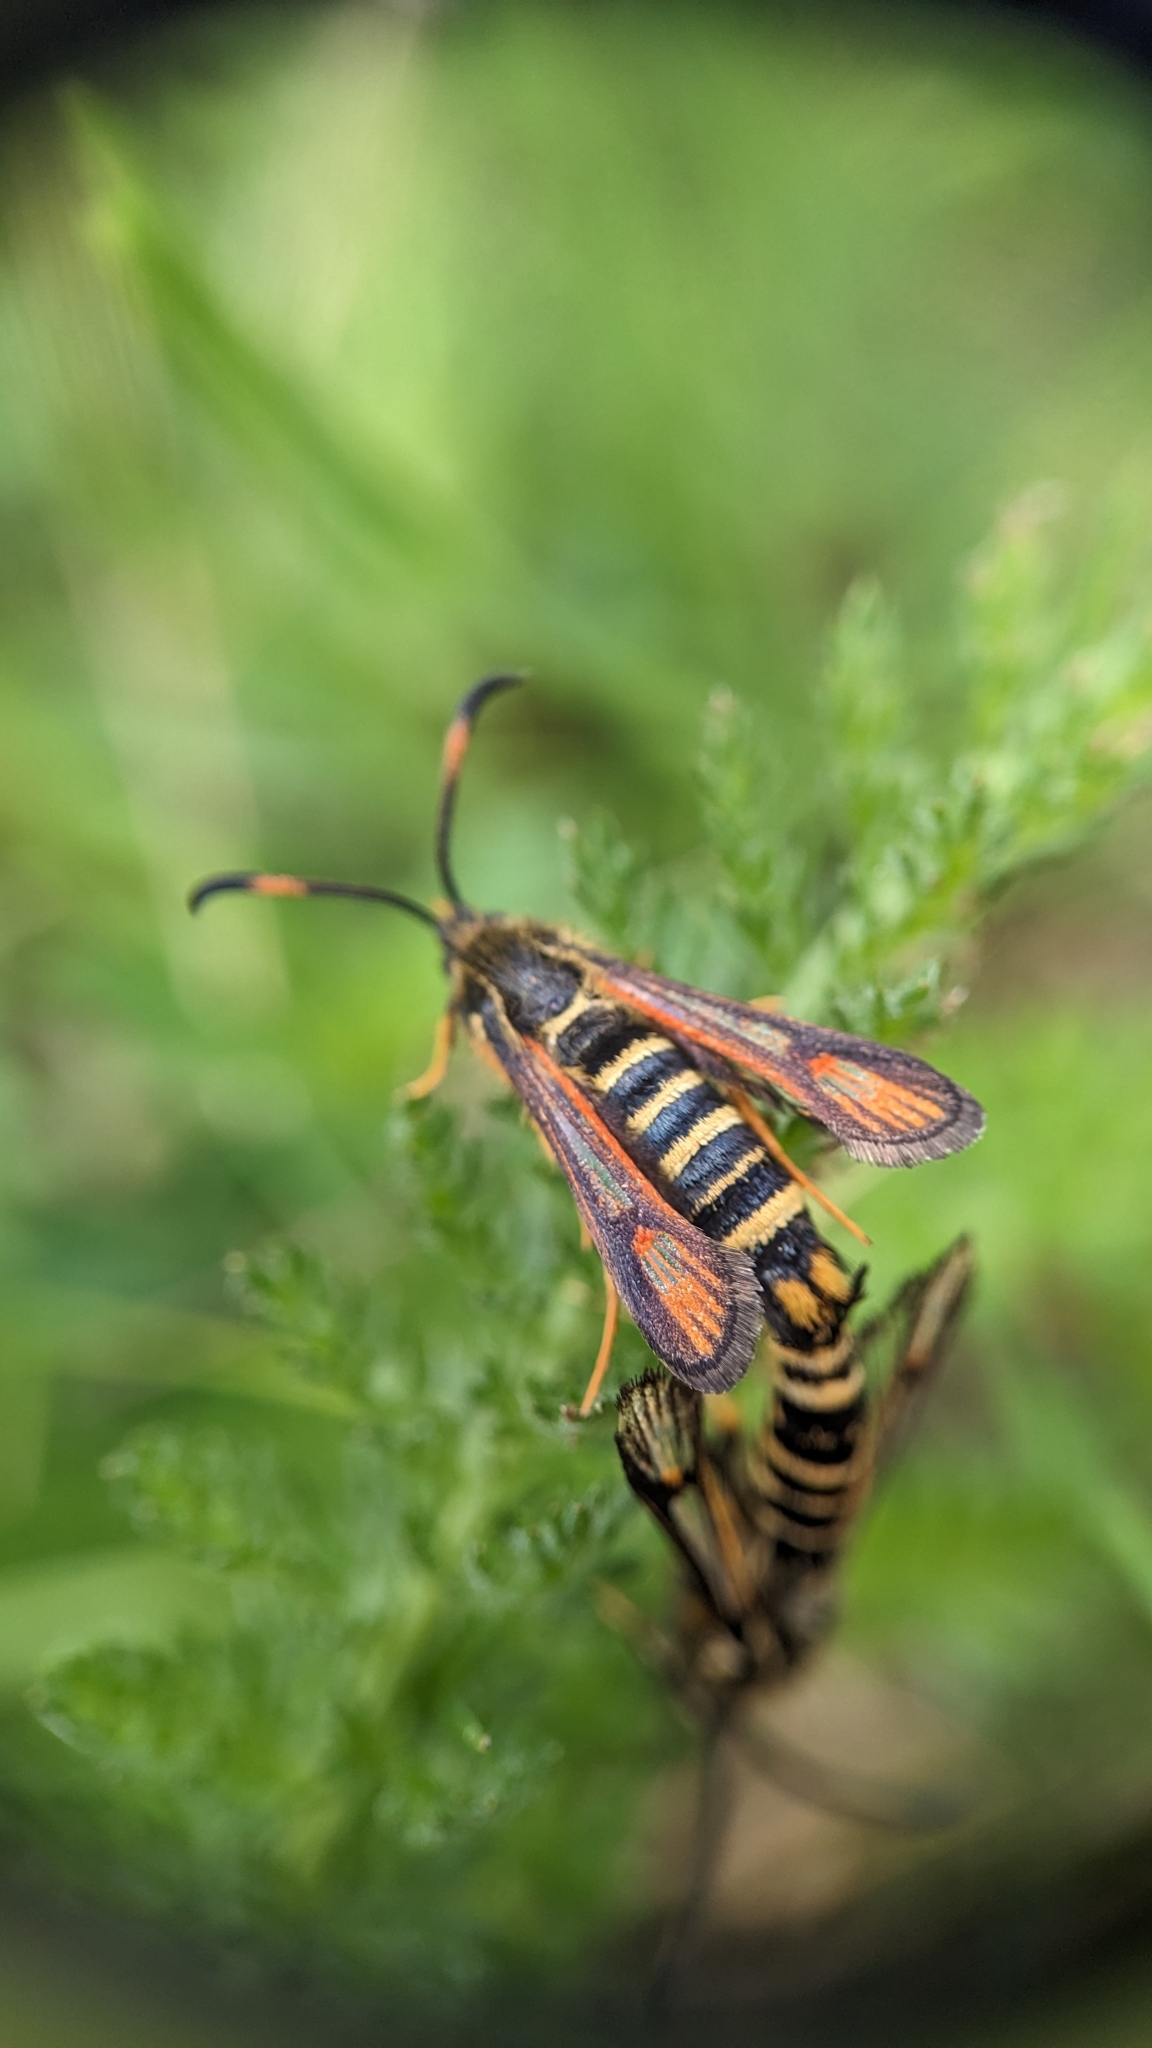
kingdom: Animalia
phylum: Arthropoda
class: Insecta
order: Lepidoptera
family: Sesiidae
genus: Bembecia
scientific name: Bembecia ichneumoniformis
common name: Six-belted clearwing
